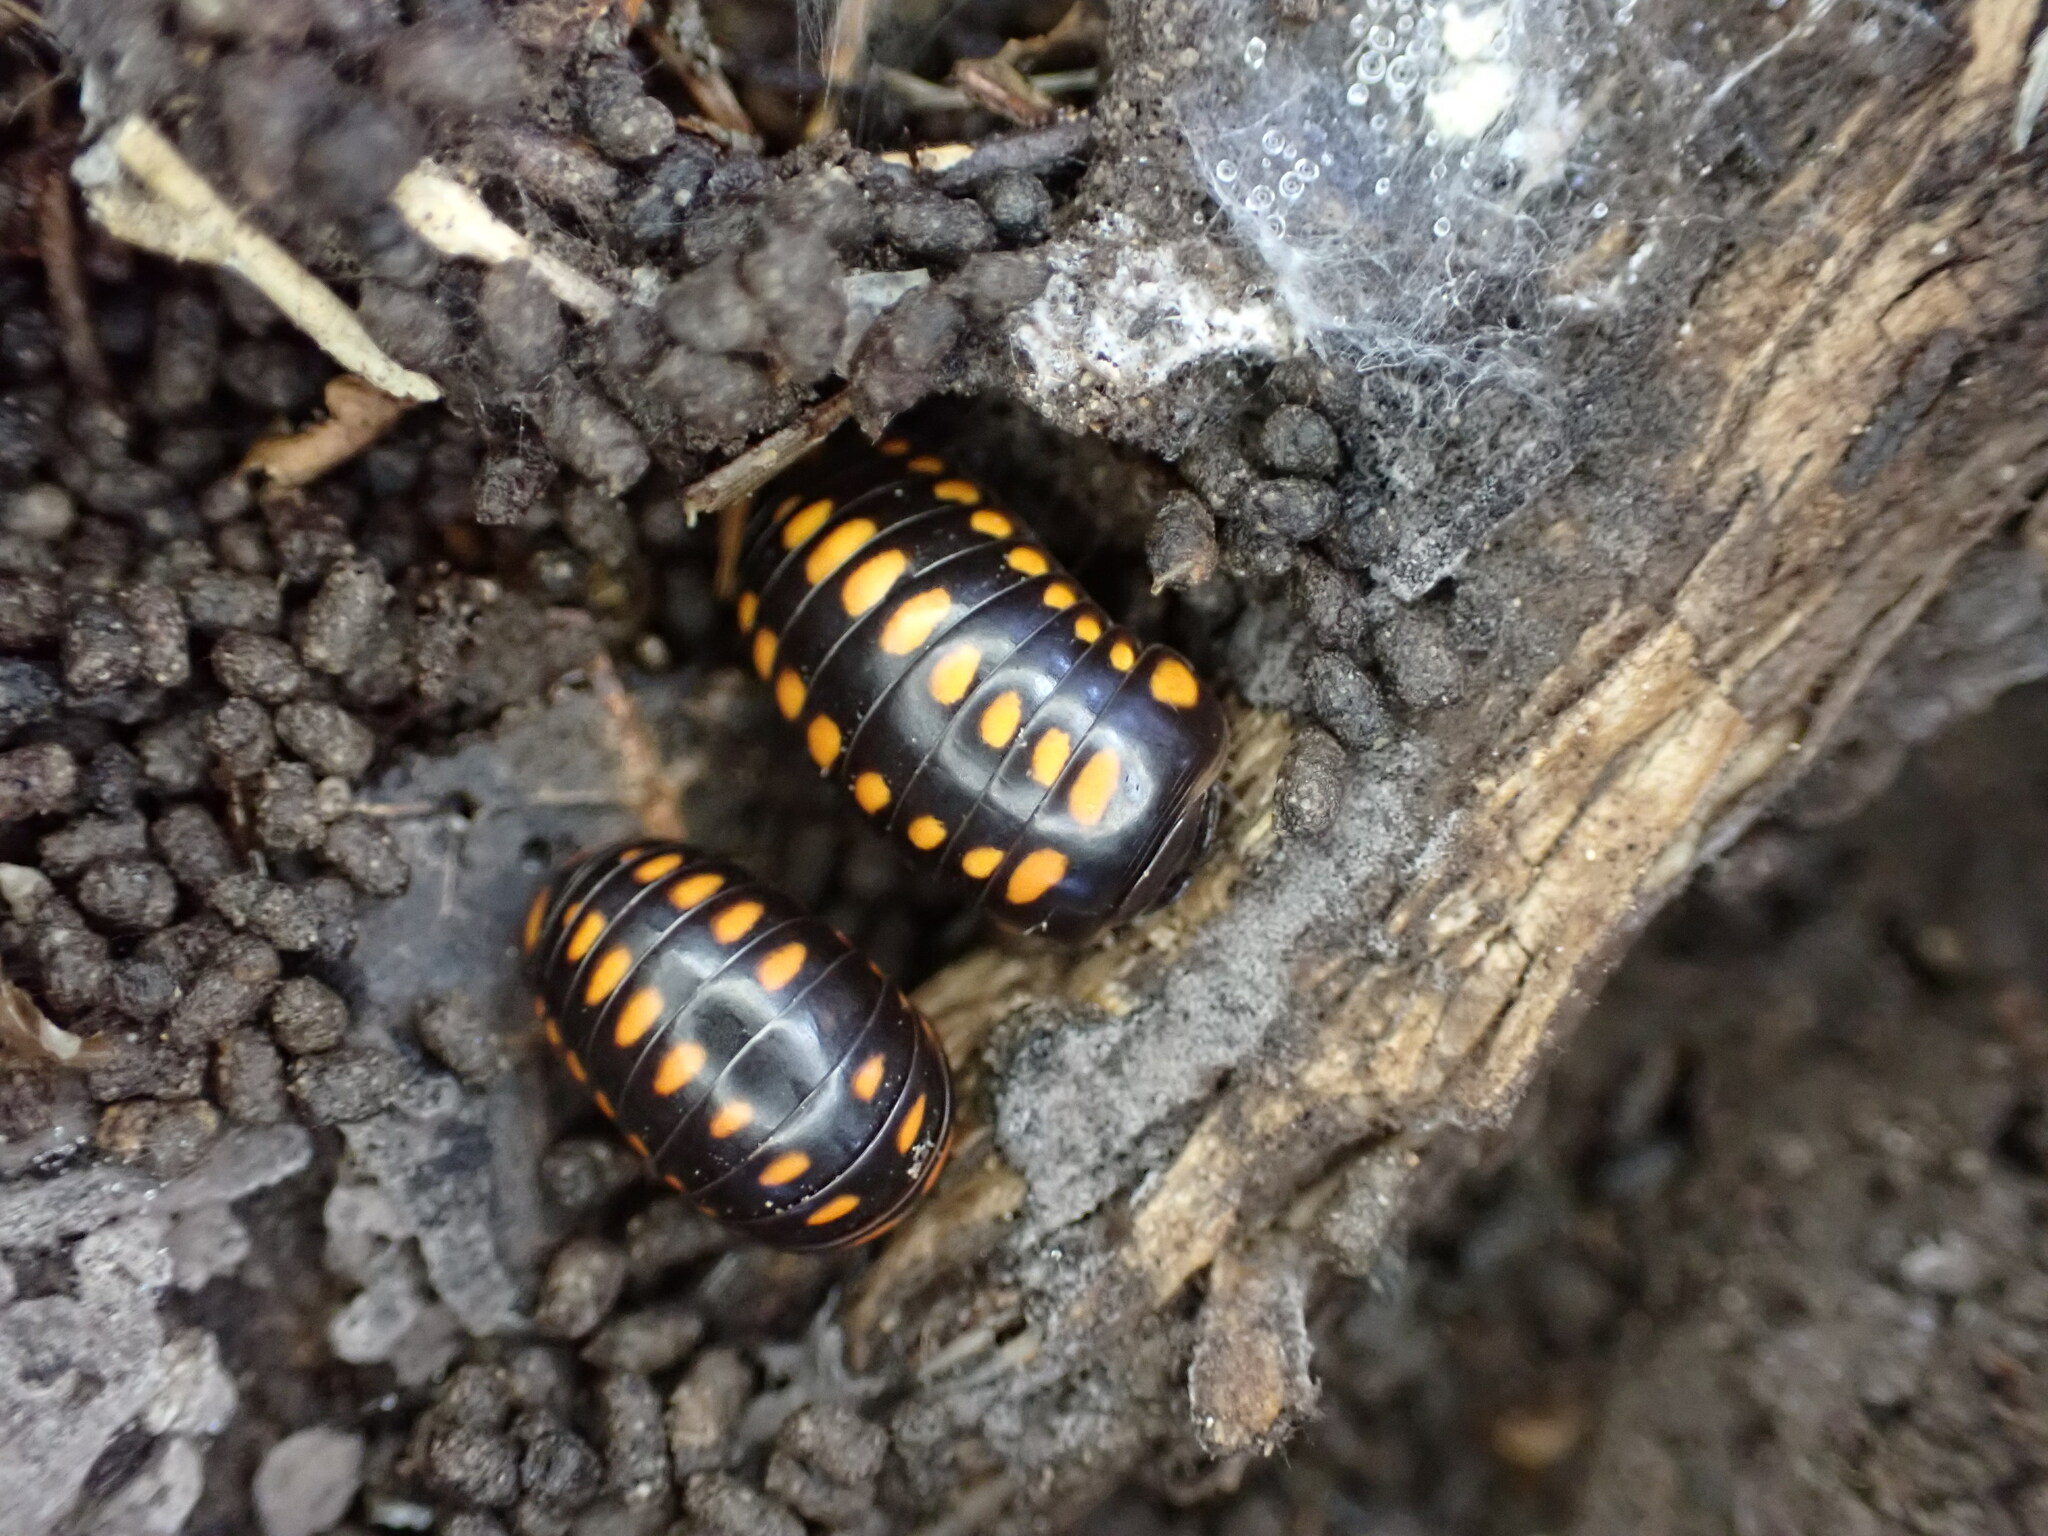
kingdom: Animalia
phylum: Arthropoda
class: Diplopoda
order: Glomerida
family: Glomeridae
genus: Glomeris
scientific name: Glomeris guttata
